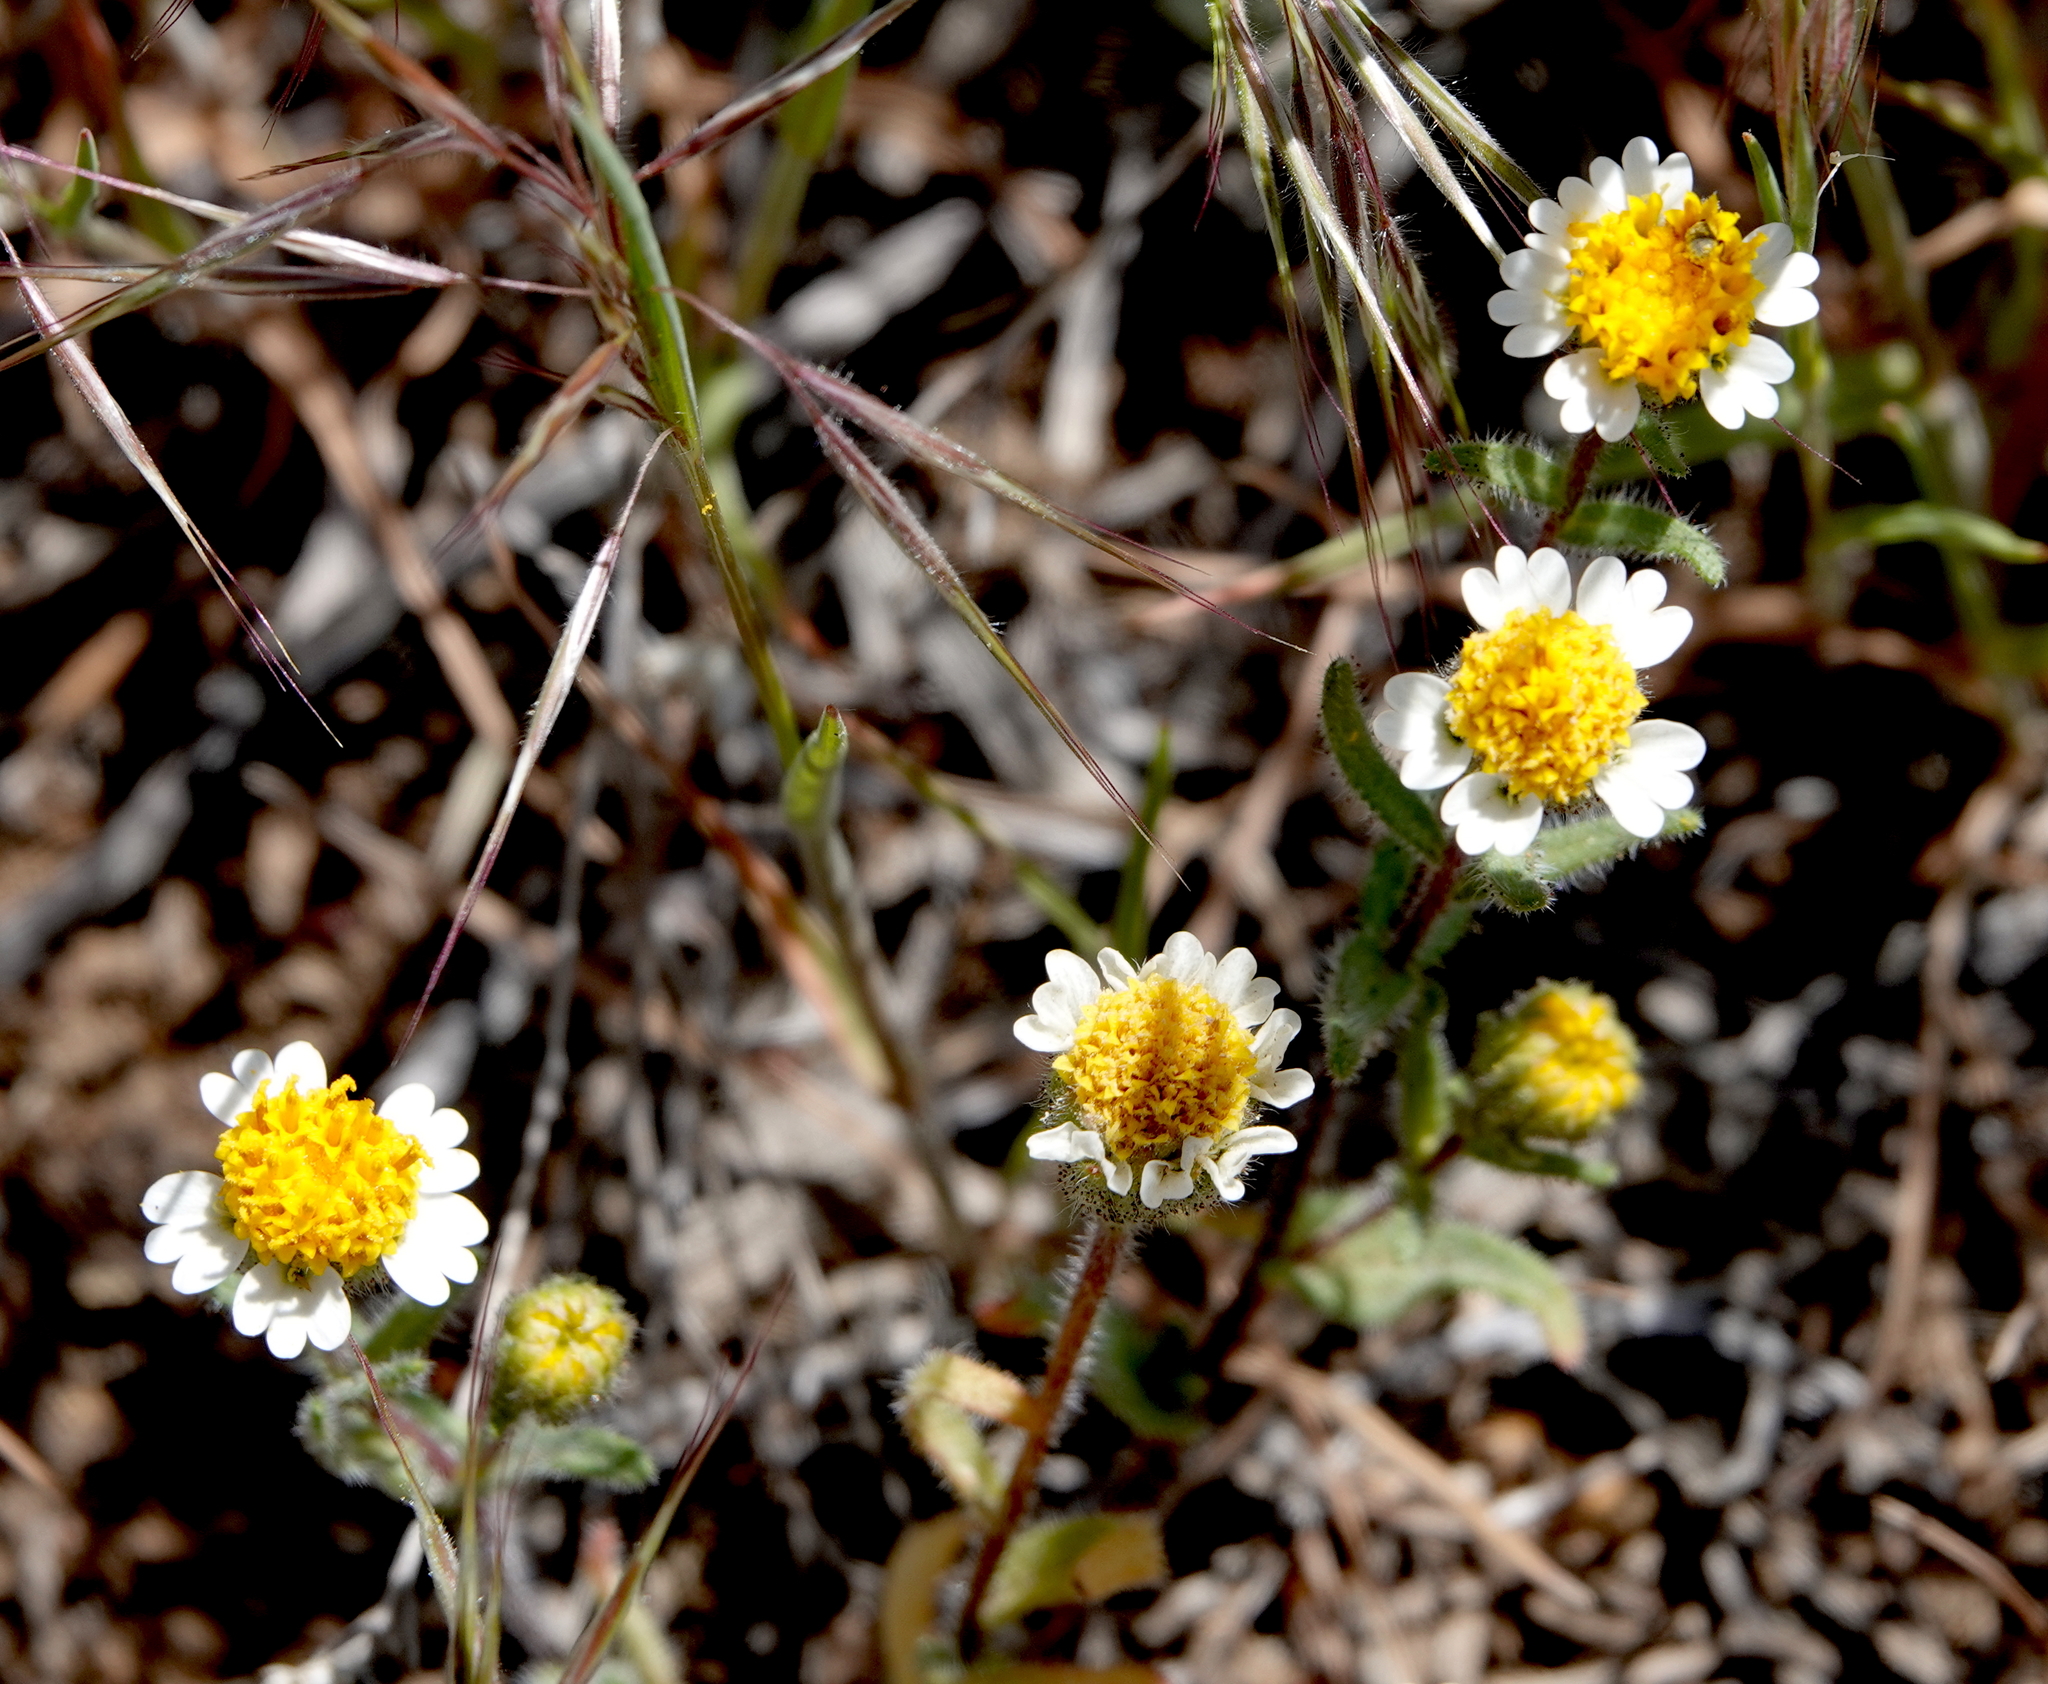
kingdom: Plantae
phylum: Tracheophyta
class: Magnoliopsida
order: Asterales
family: Asteraceae
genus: Layia
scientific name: Layia glandulosa
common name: White layia
